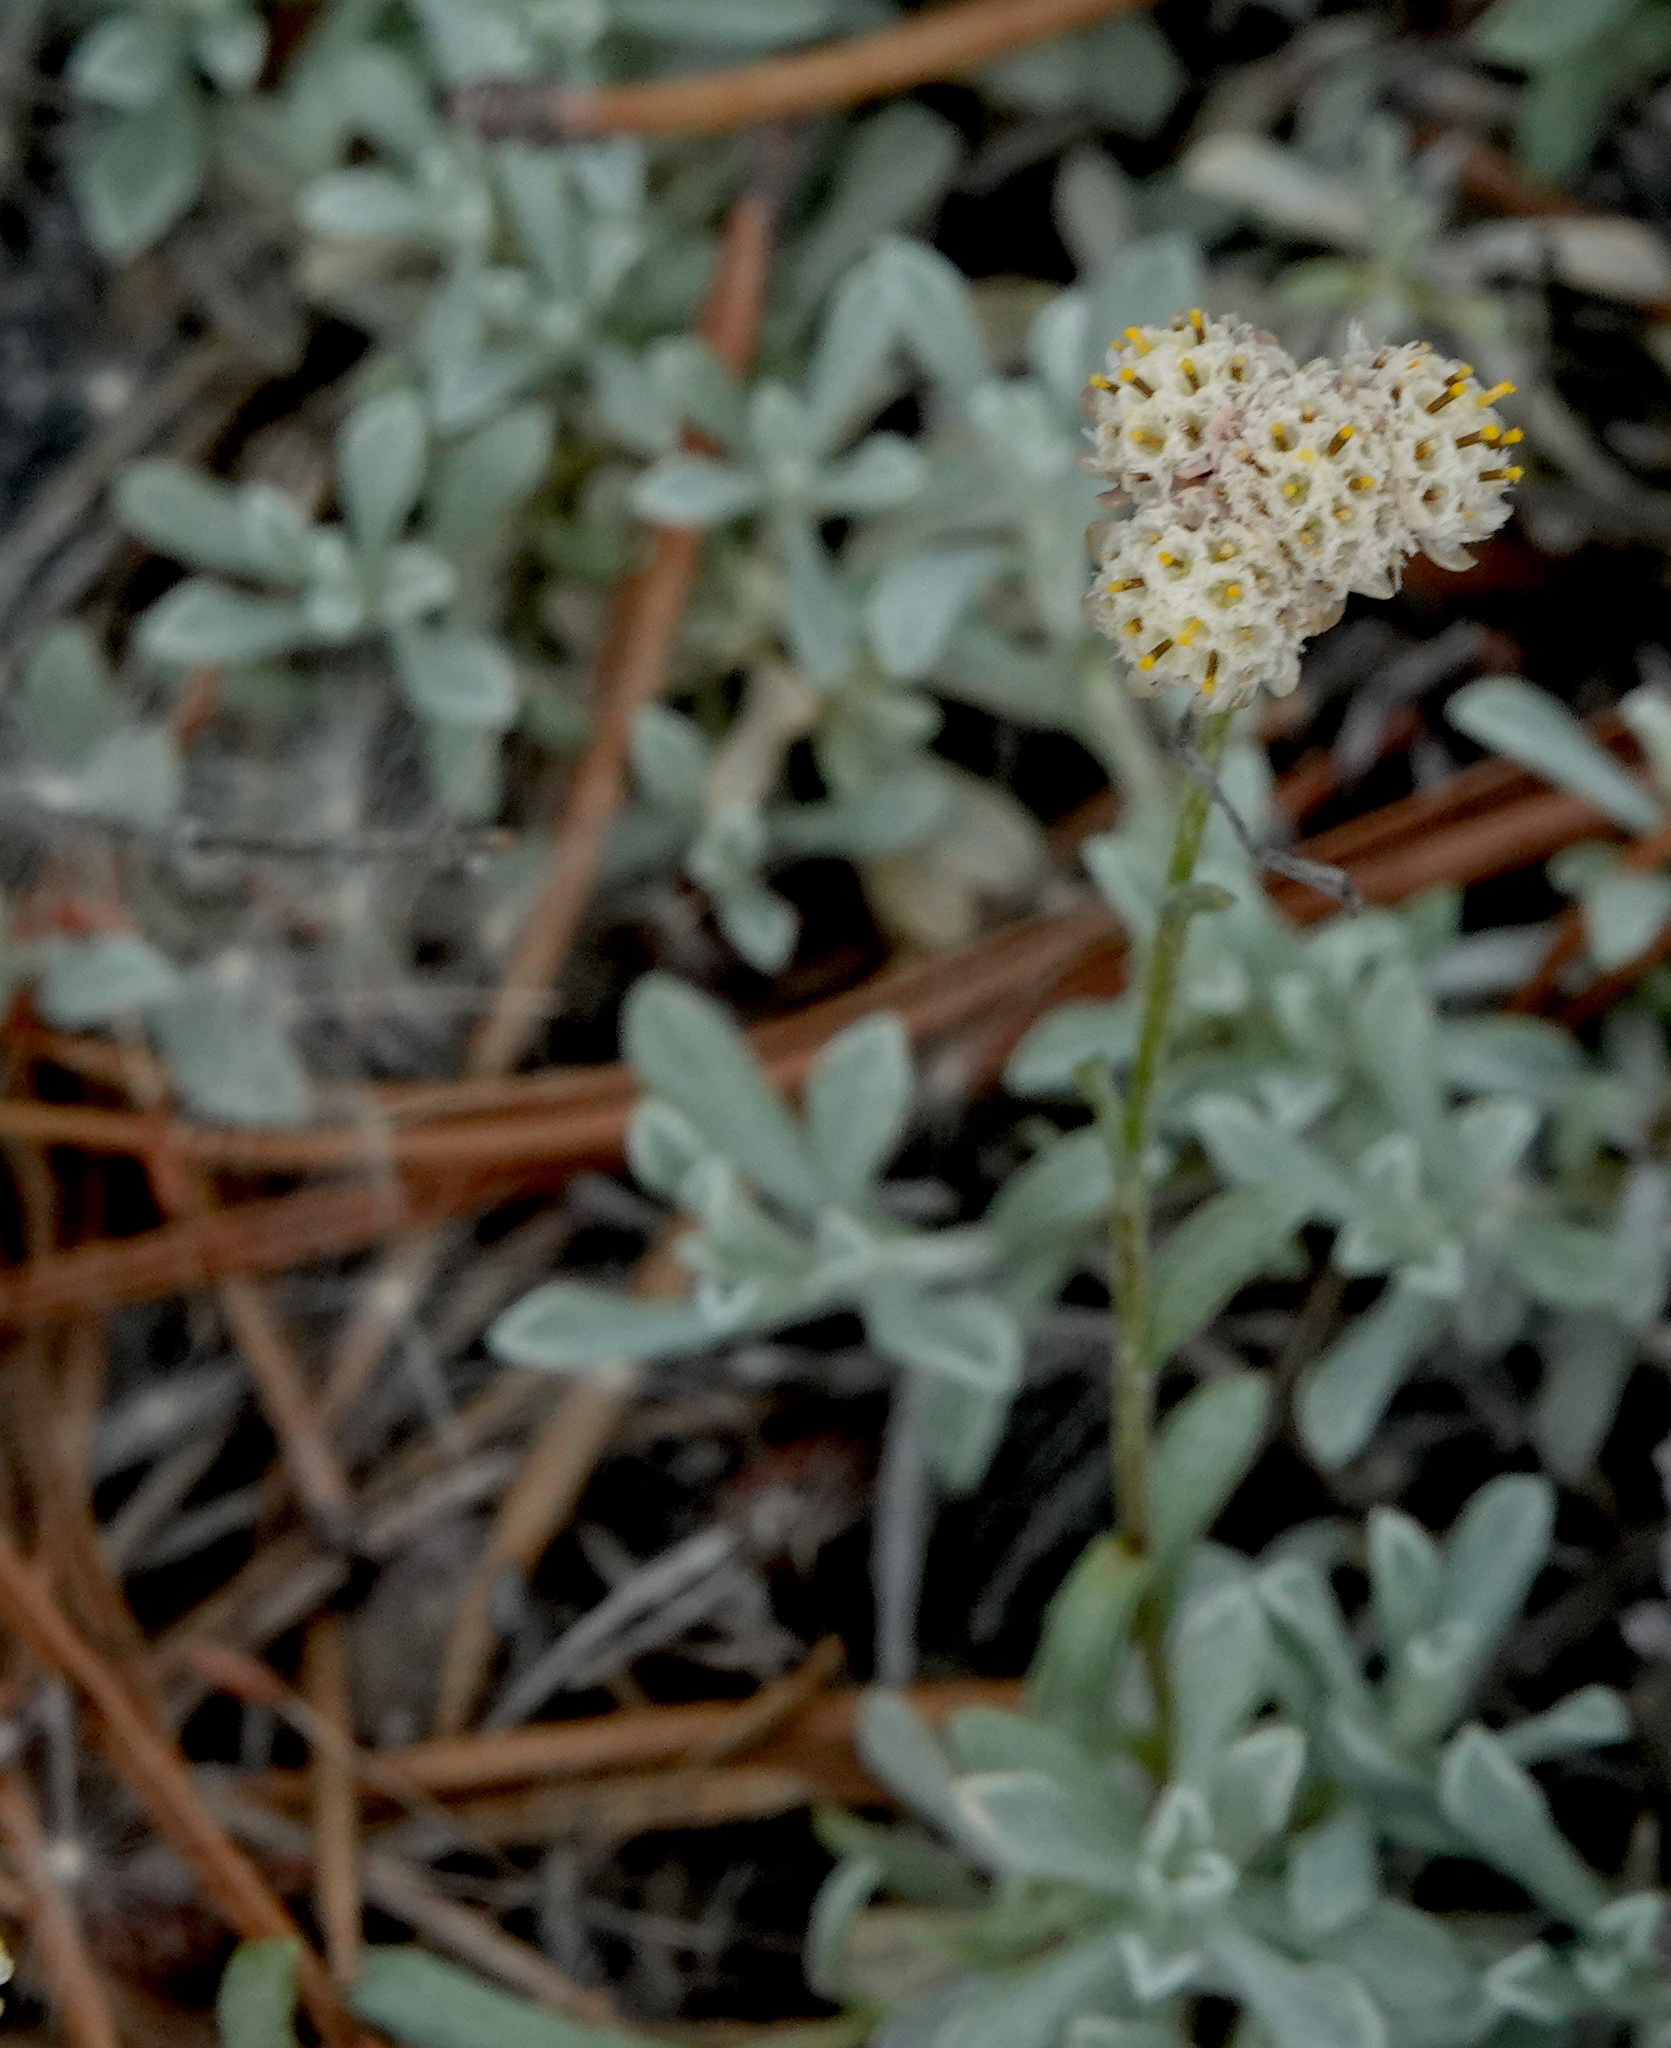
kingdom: Plantae
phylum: Tracheophyta
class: Magnoliopsida
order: Asterales
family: Asteraceae
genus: Antennaria
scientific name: Antennaria umbrinella
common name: Brown pussytoes
